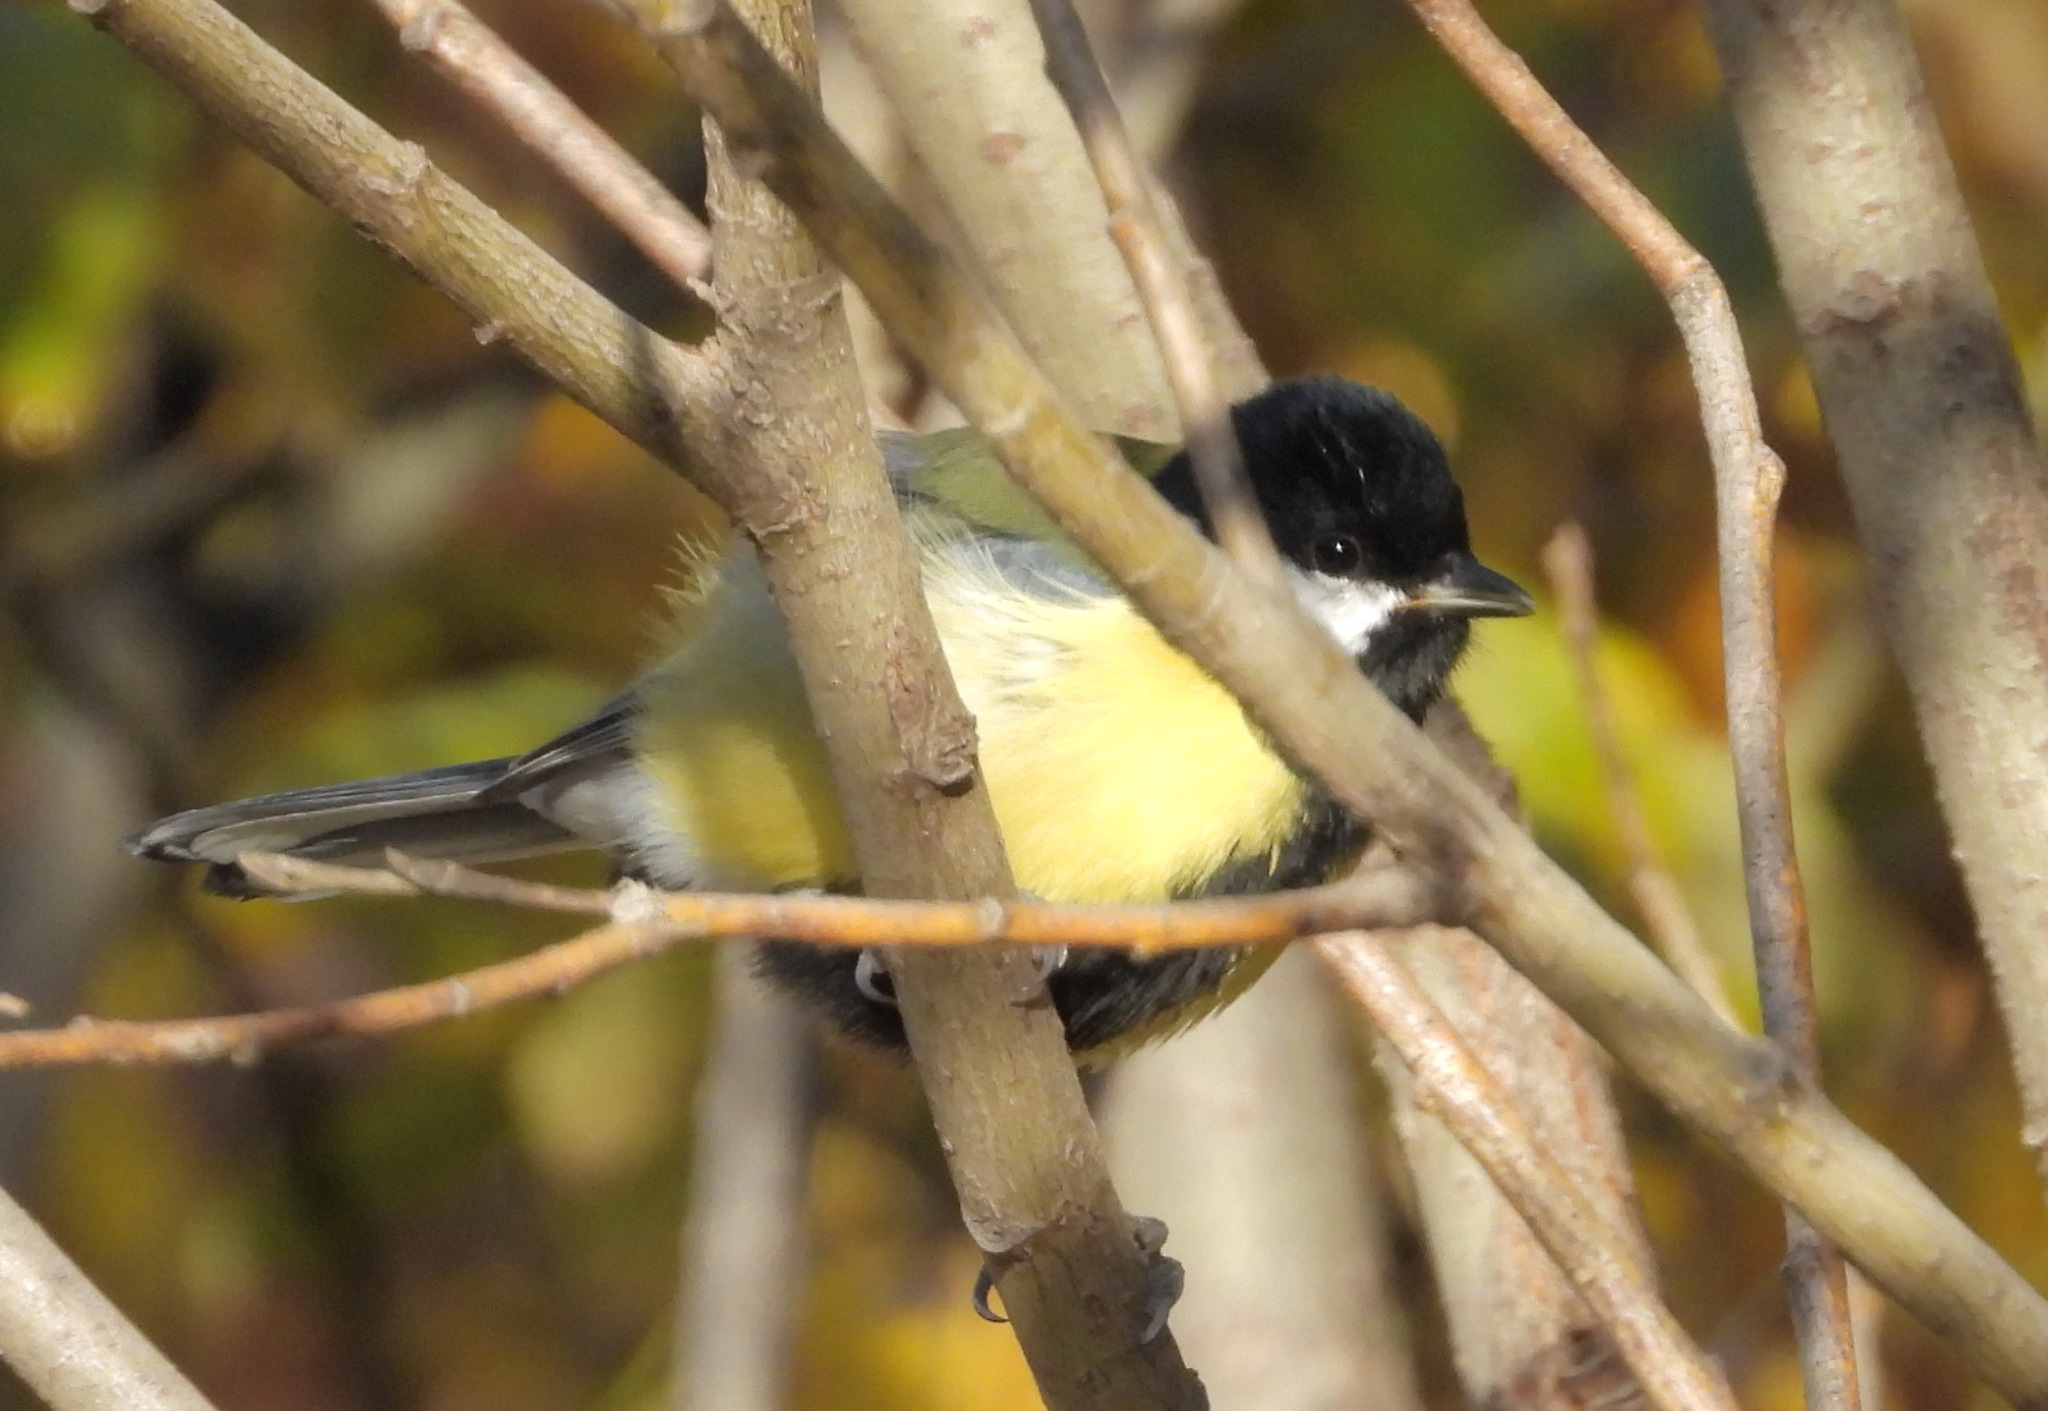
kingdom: Animalia
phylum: Chordata
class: Aves
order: Passeriformes
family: Paridae
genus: Parus
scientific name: Parus major
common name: Great tit
